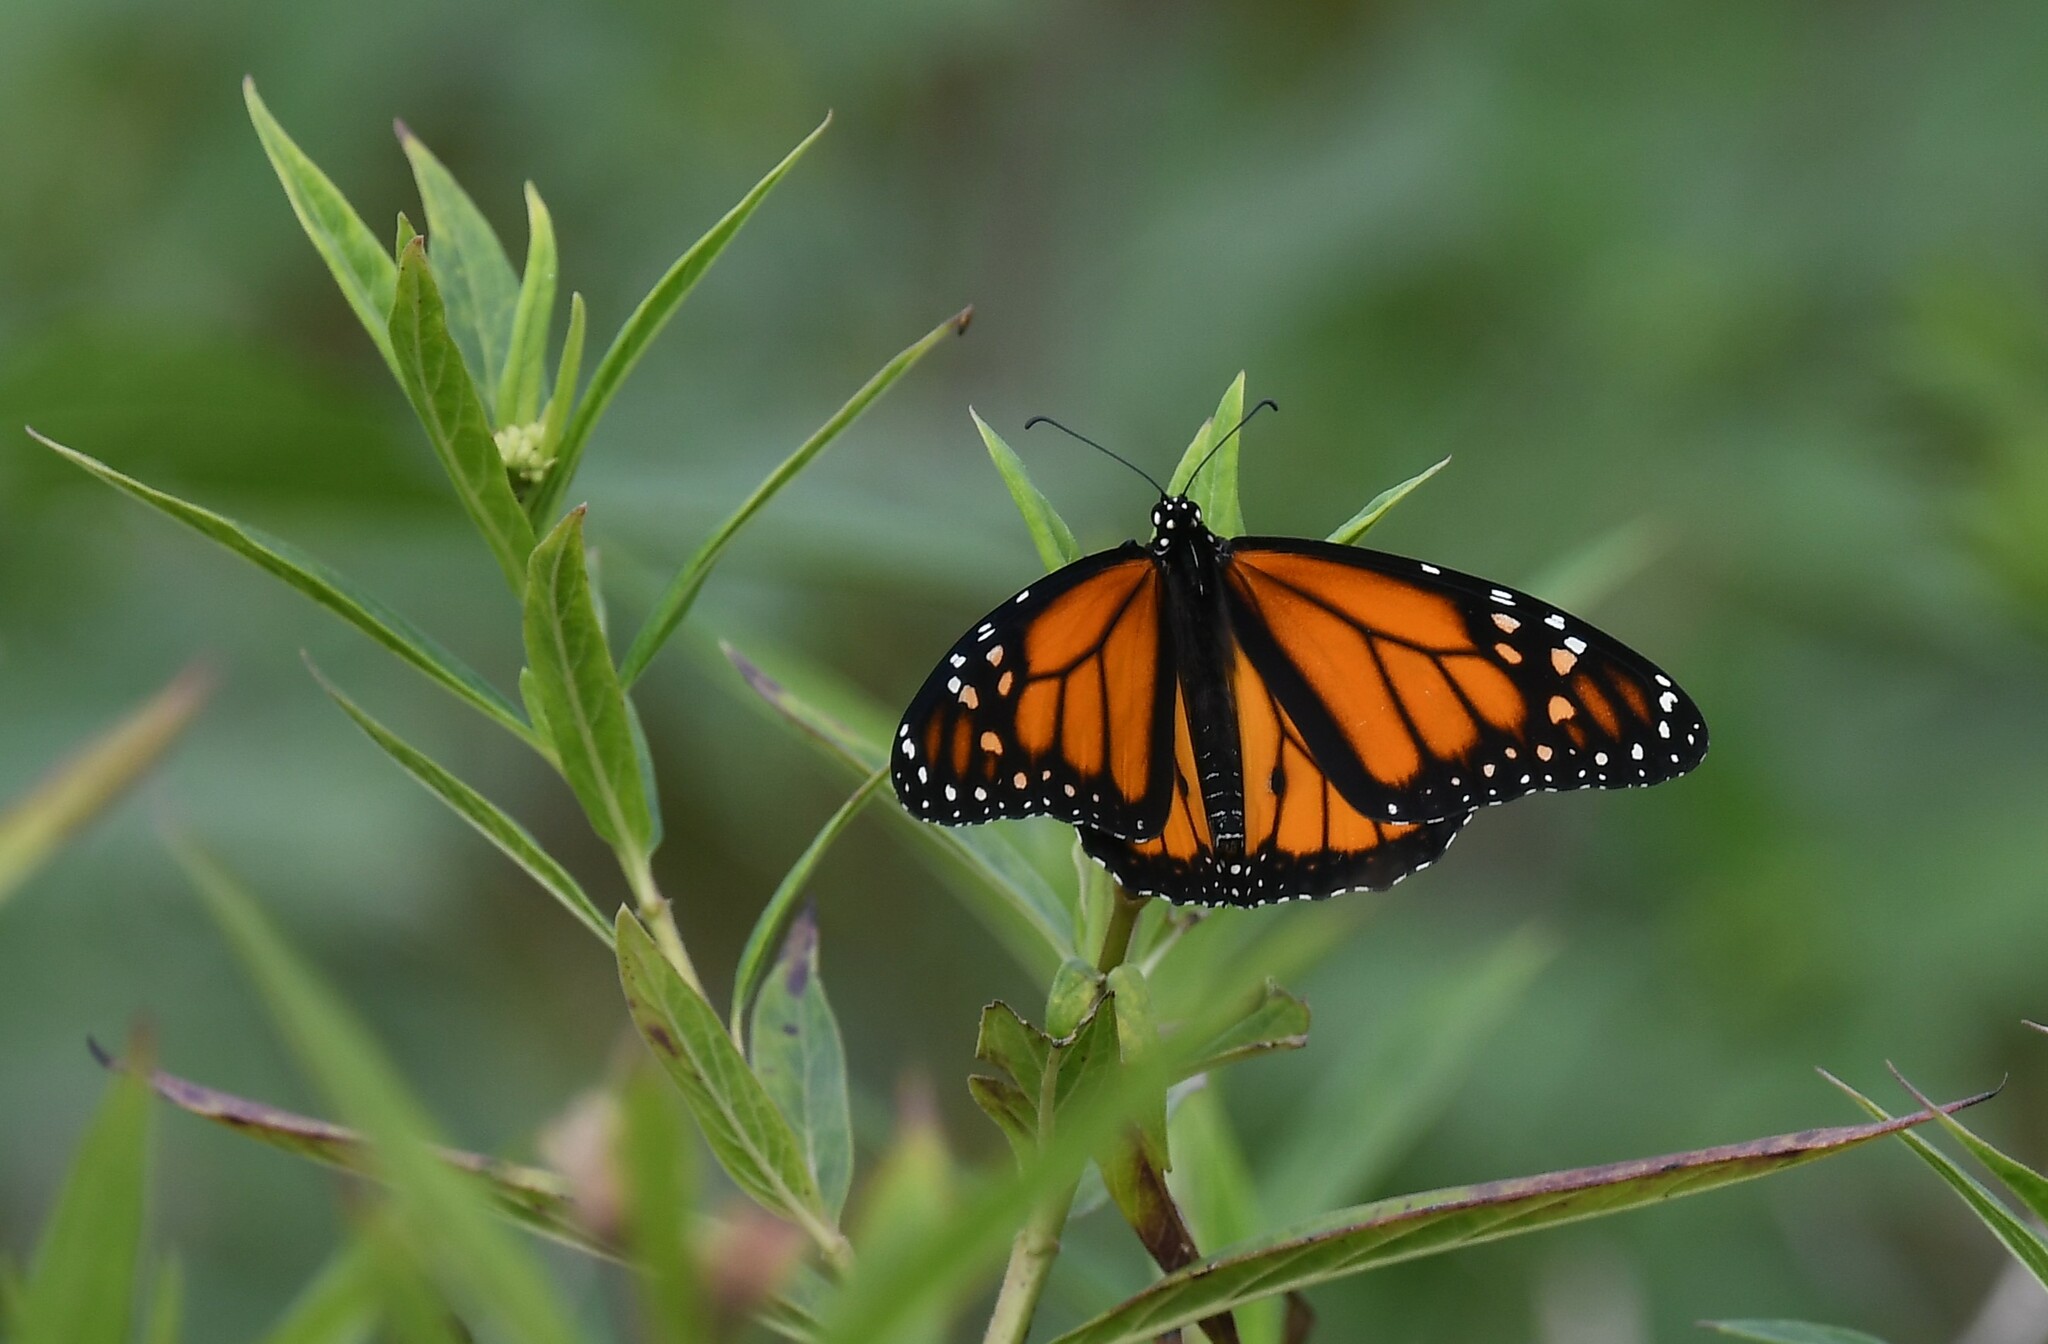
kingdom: Animalia
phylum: Arthropoda
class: Insecta
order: Lepidoptera
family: Nymphalidae
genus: Danaus
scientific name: Danaus plexippus
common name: Monarch
